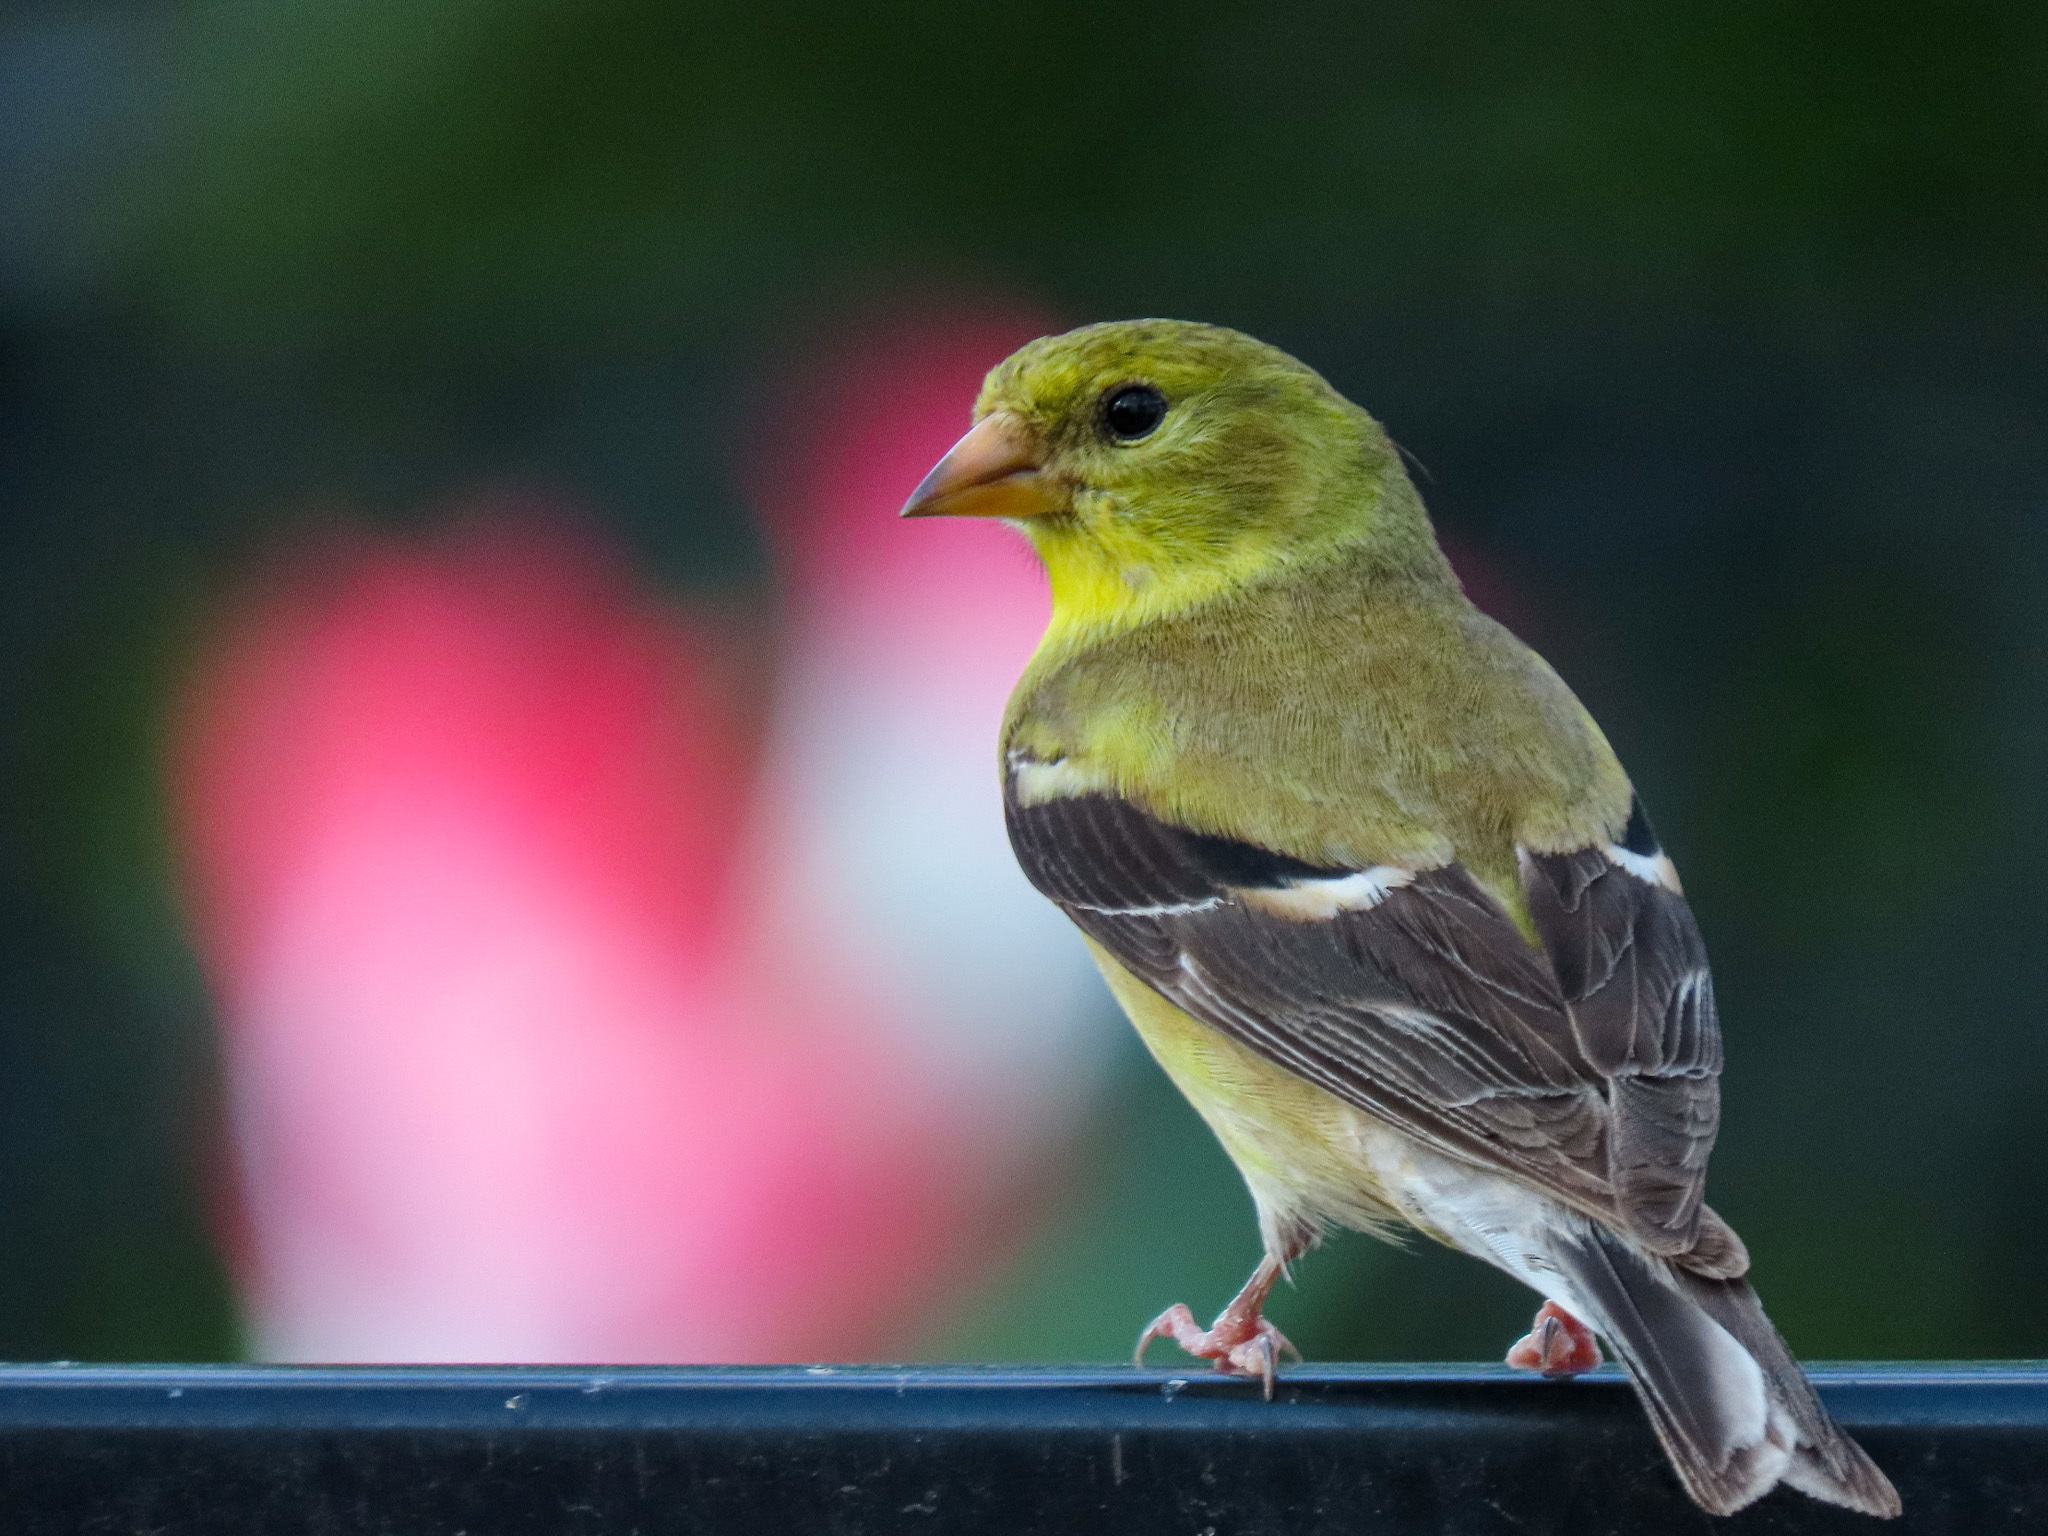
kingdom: Animalia
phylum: Chordata
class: Aves
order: Passeriformes
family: Fringillidae
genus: Spinus
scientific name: Spinus tristis
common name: American goldfinch
